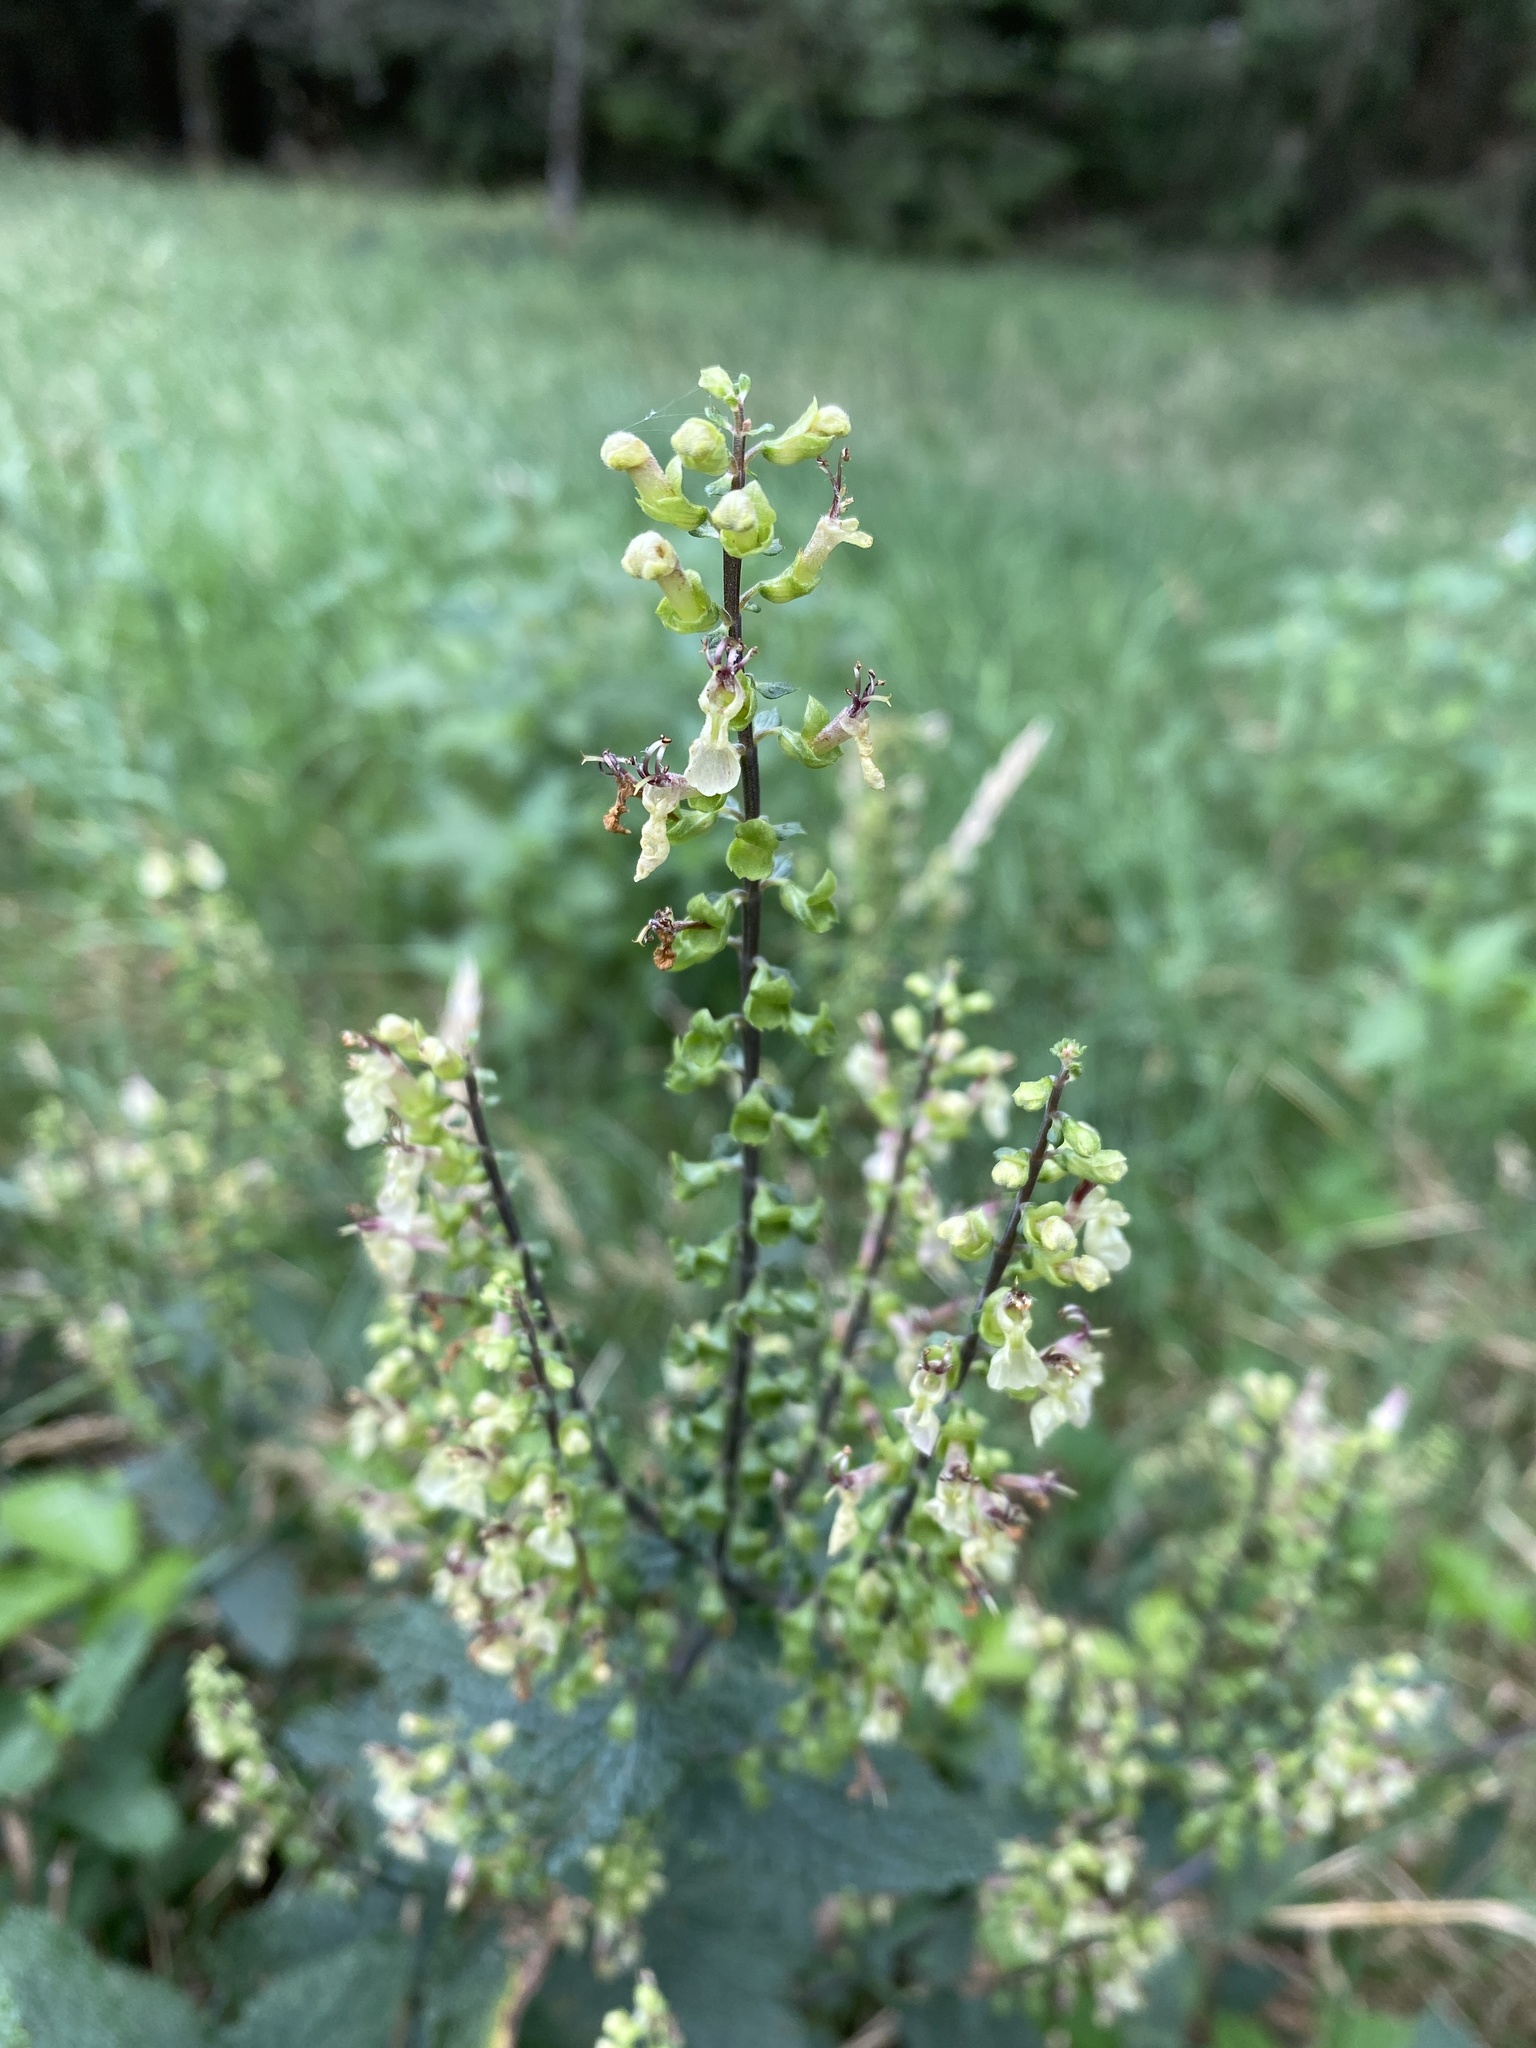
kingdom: Plantae
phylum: Tracheophyta
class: Magnoliopsida
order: Lamiales
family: Lamiaceae
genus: Teucrium
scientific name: Teucrium scorodonia
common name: Woodland germander
